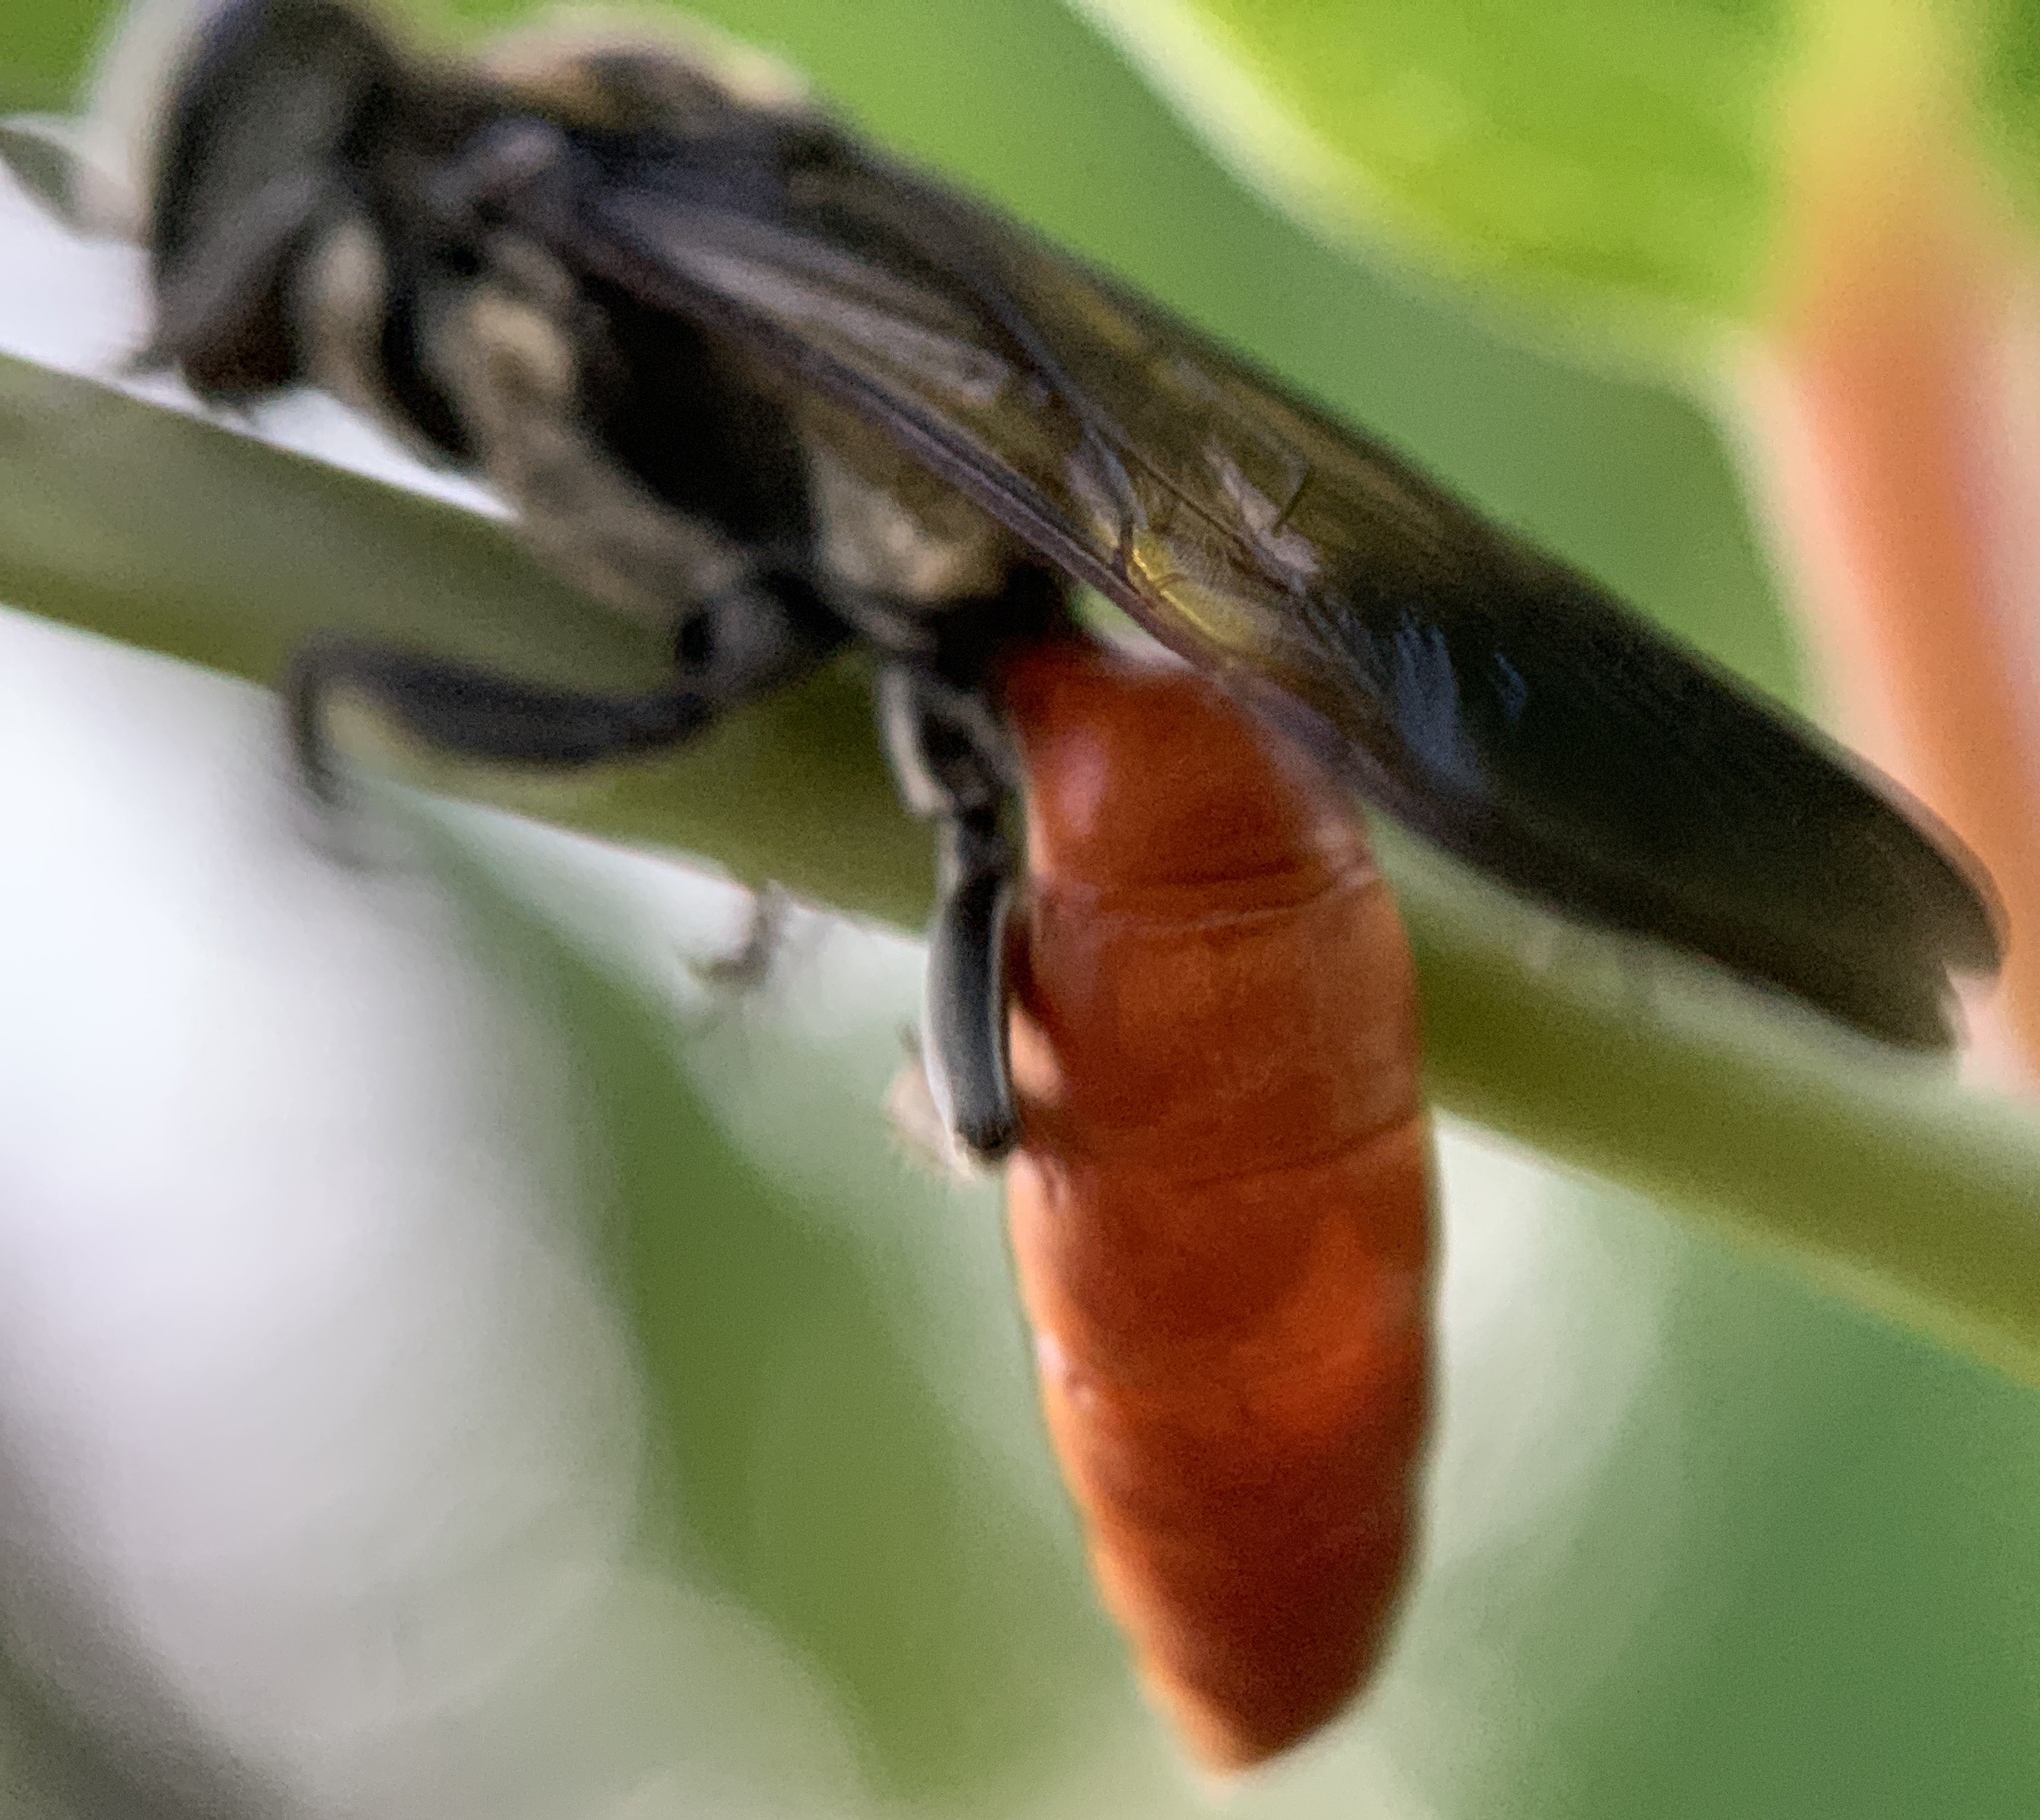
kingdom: Animalia
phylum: Arthropoda
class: Insecta
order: Hymenoptera
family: Crabronidae
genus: Larra
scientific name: Larra bicolor
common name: Wasp
